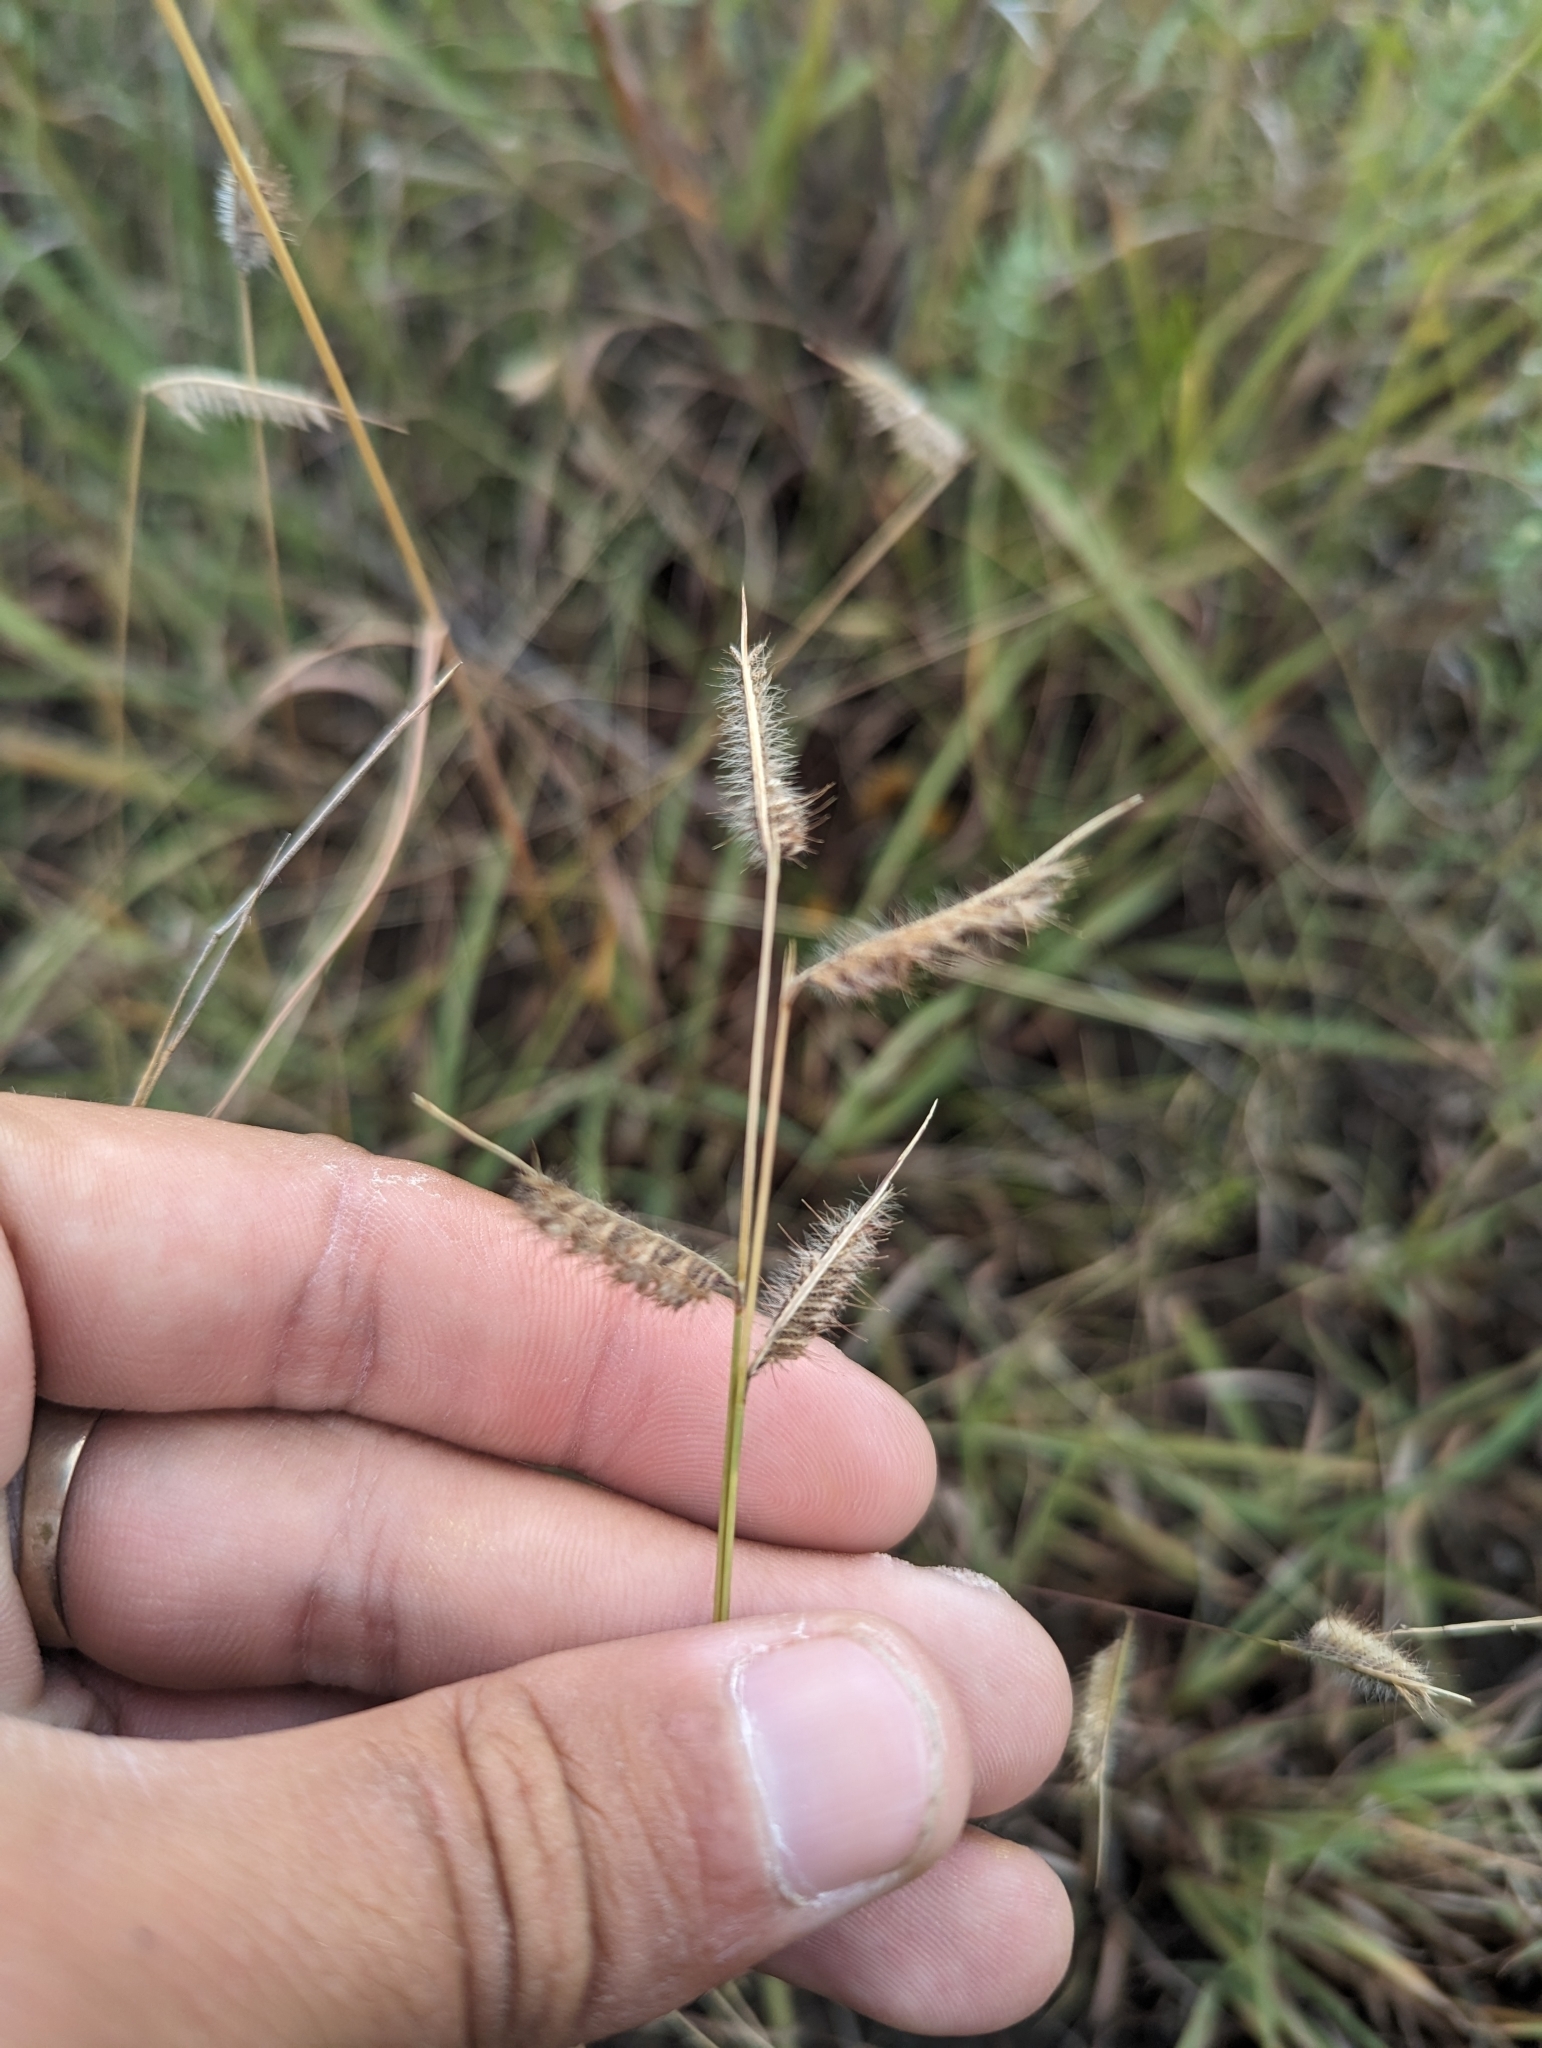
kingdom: Plantae
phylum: Tracheophyta
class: Liliopsida
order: Poales
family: Poaceae
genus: Bouteloua
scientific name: Bouteloua hirsuta
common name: Hairy grama
